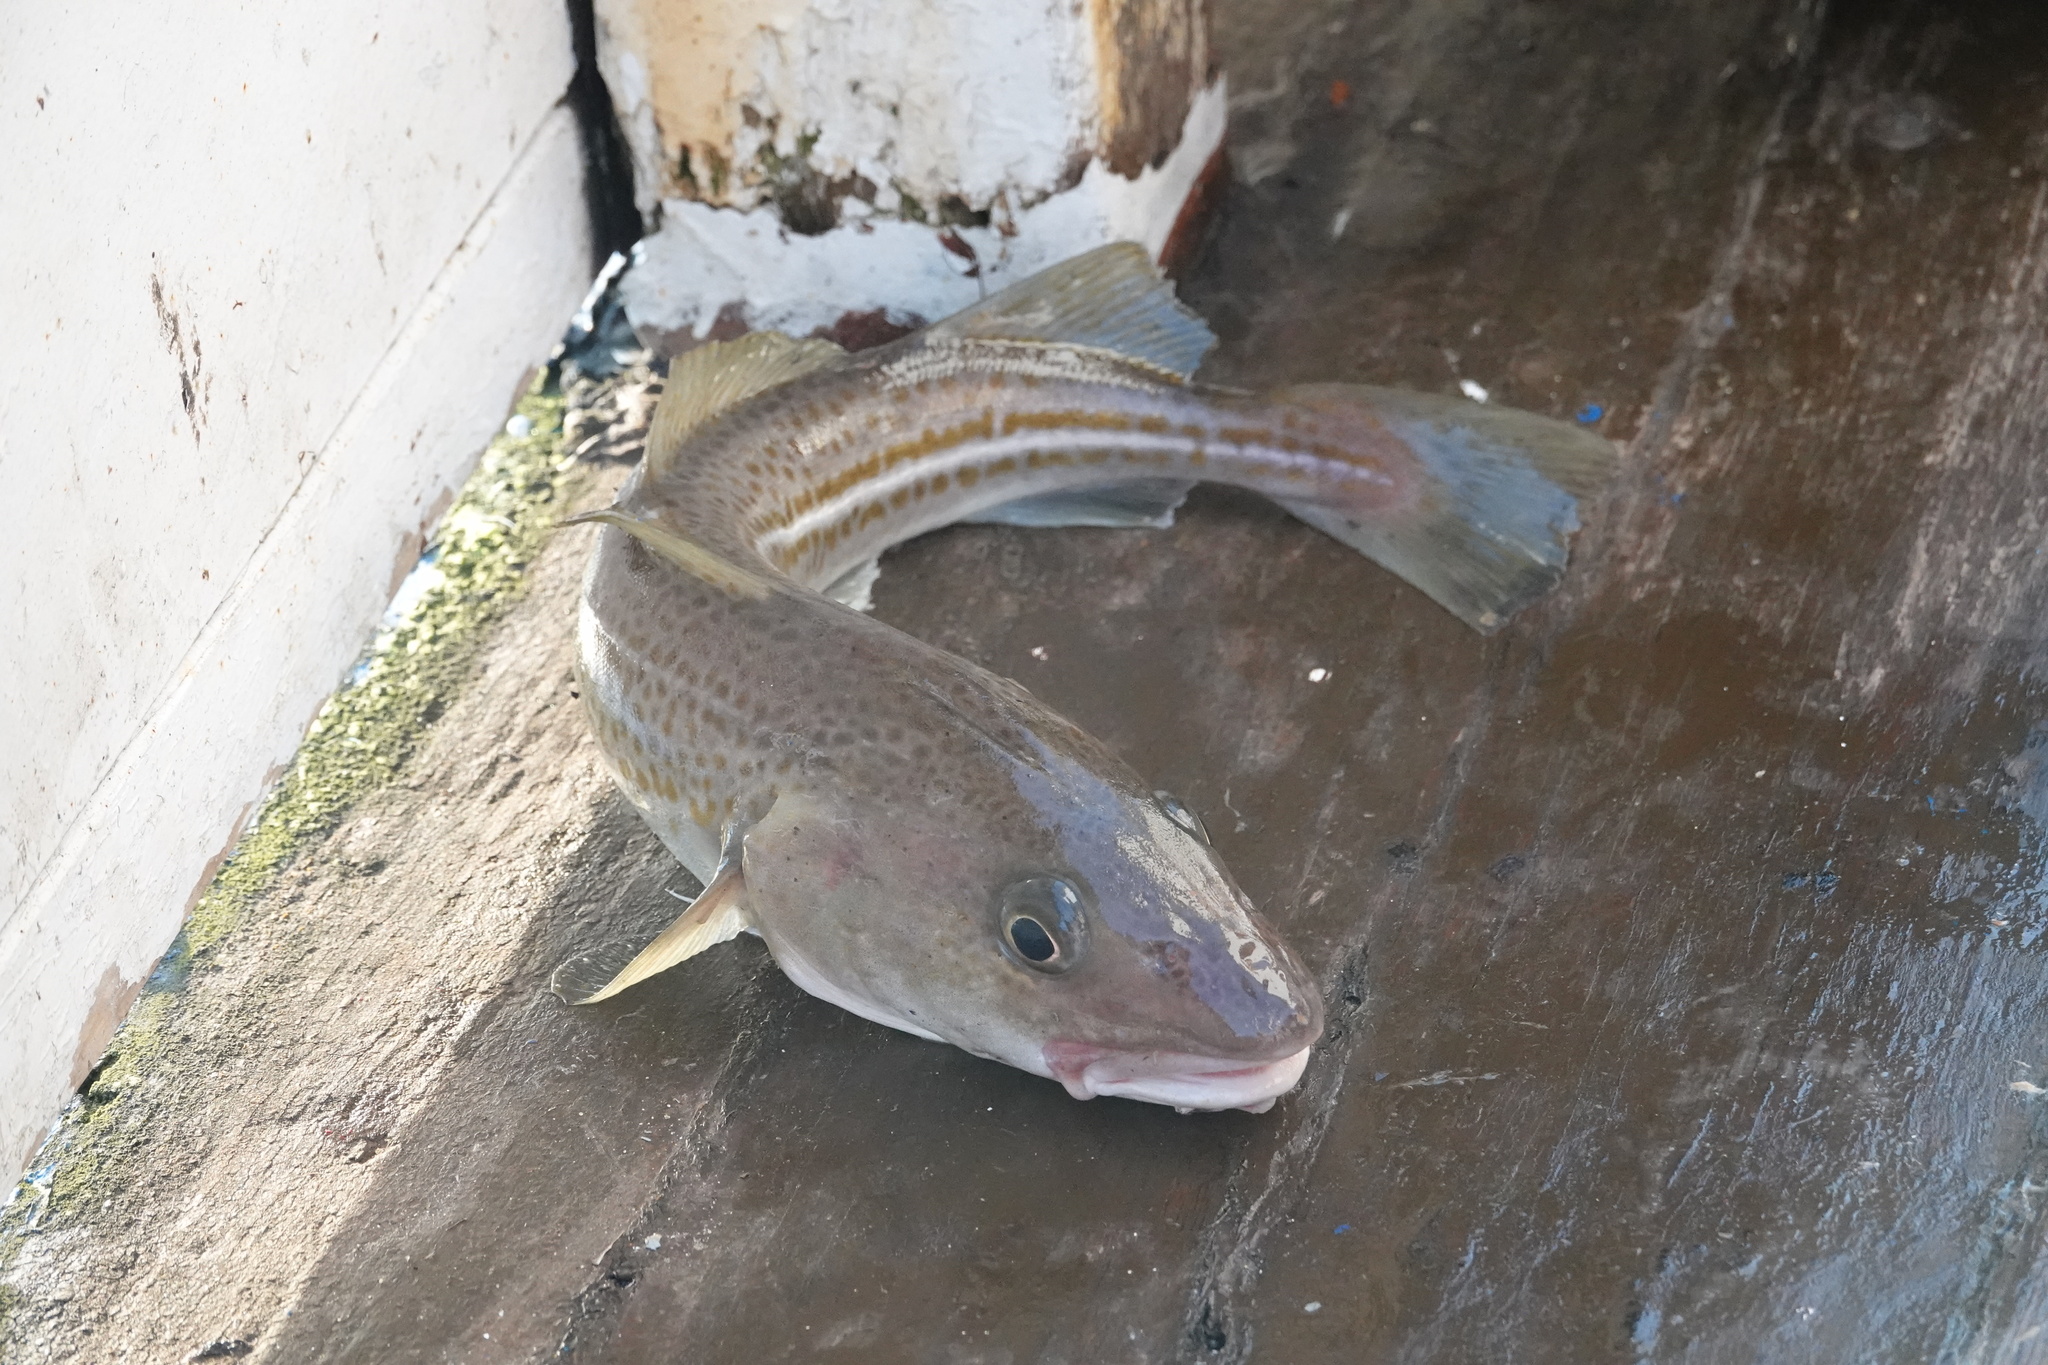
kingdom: Animalia
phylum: Chordata
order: Gadiformes
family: Gadidae
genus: Gadus
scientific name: Gadus morhua
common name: Atlantic cod
